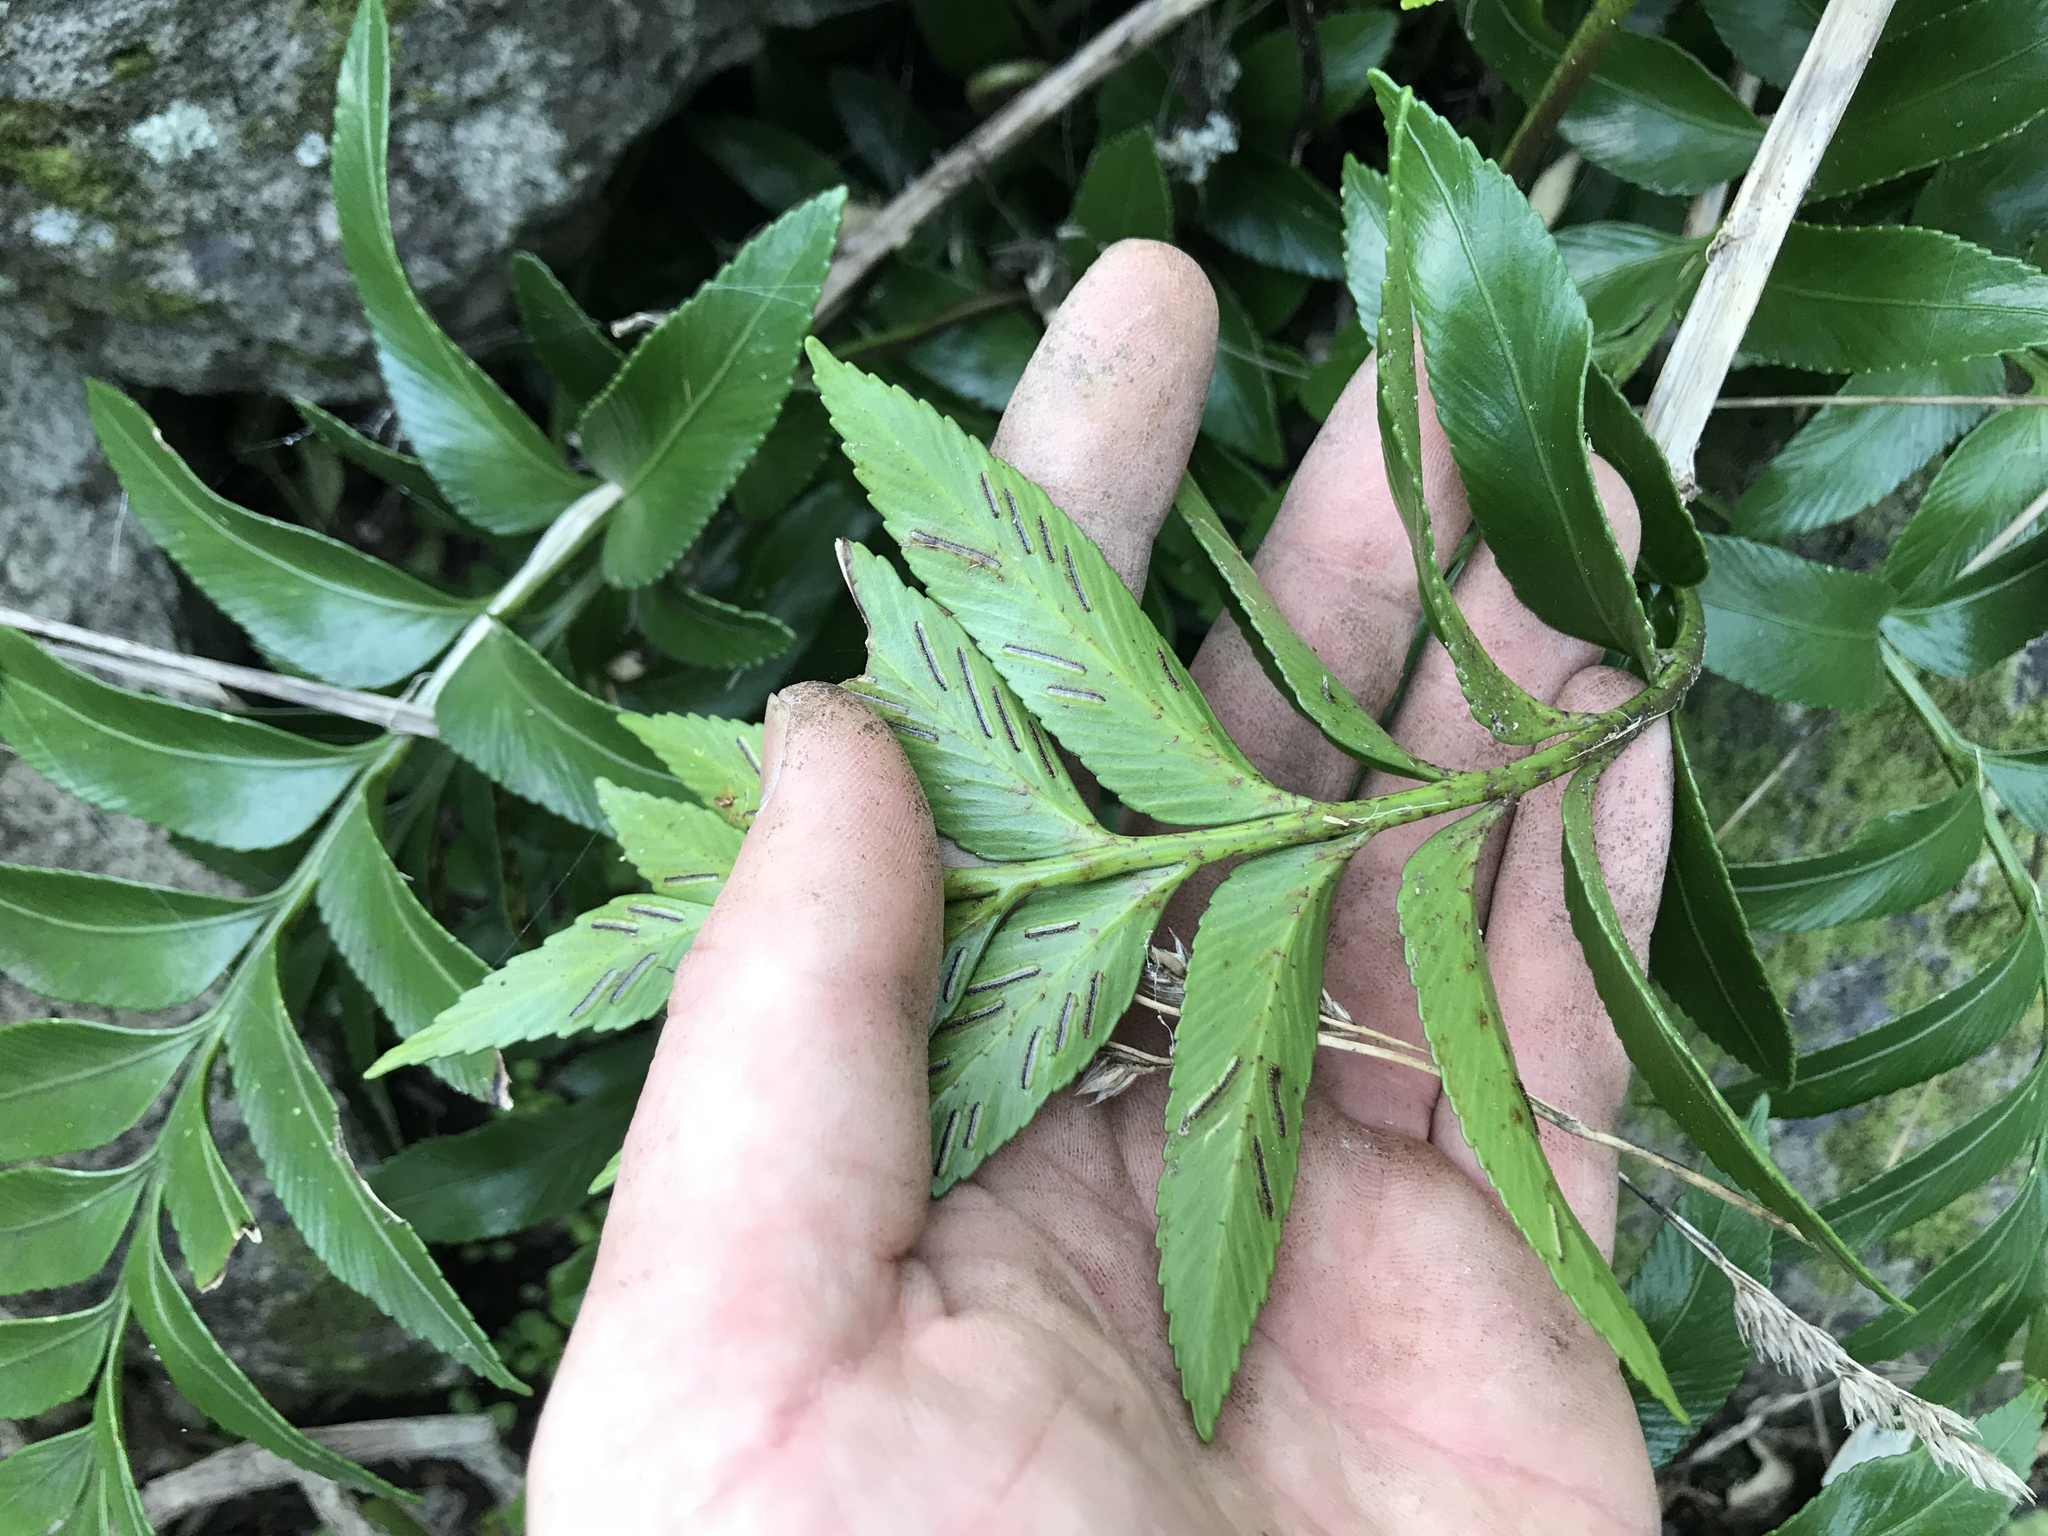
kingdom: Plantae
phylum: Tracheophyta
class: Polypodiopsida
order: Polypodiales
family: Aspleniaceae
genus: Asplenium
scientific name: Asplenium obtusatum
